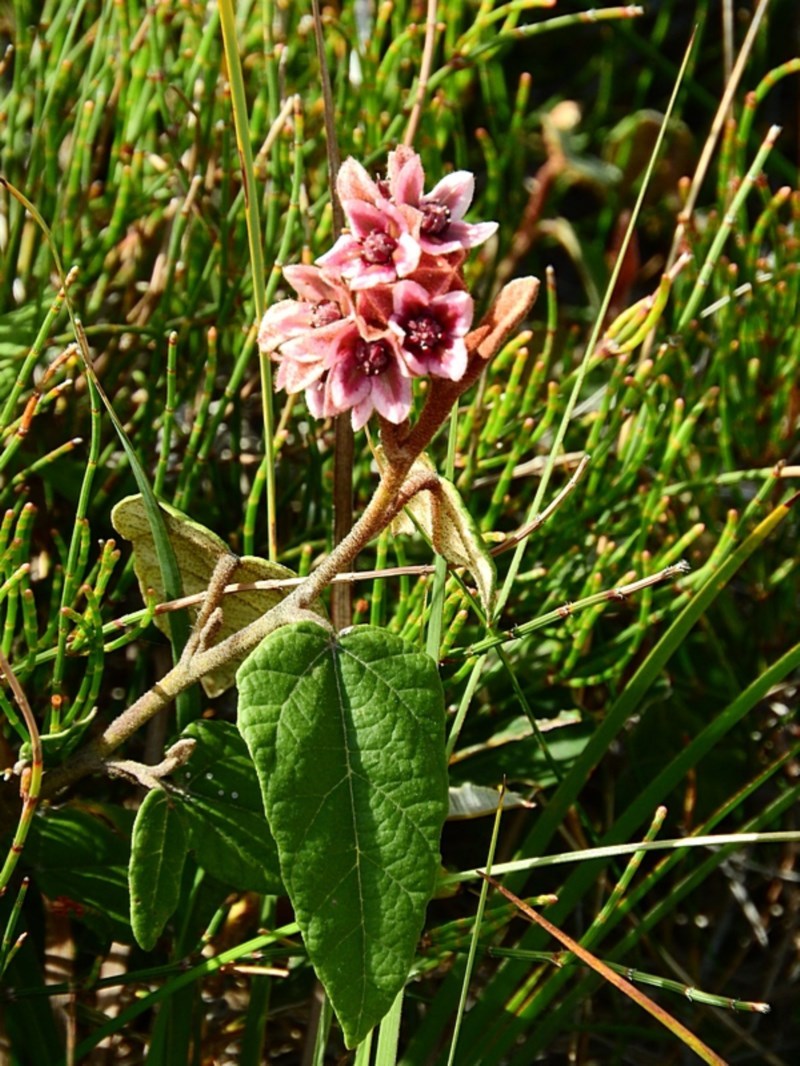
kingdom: Plantae
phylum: Tracheophyta
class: Magnoliopsida
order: Malvales
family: Malvaceae
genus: Lasiopetalum
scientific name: Lasiopetalum macrophyllum
